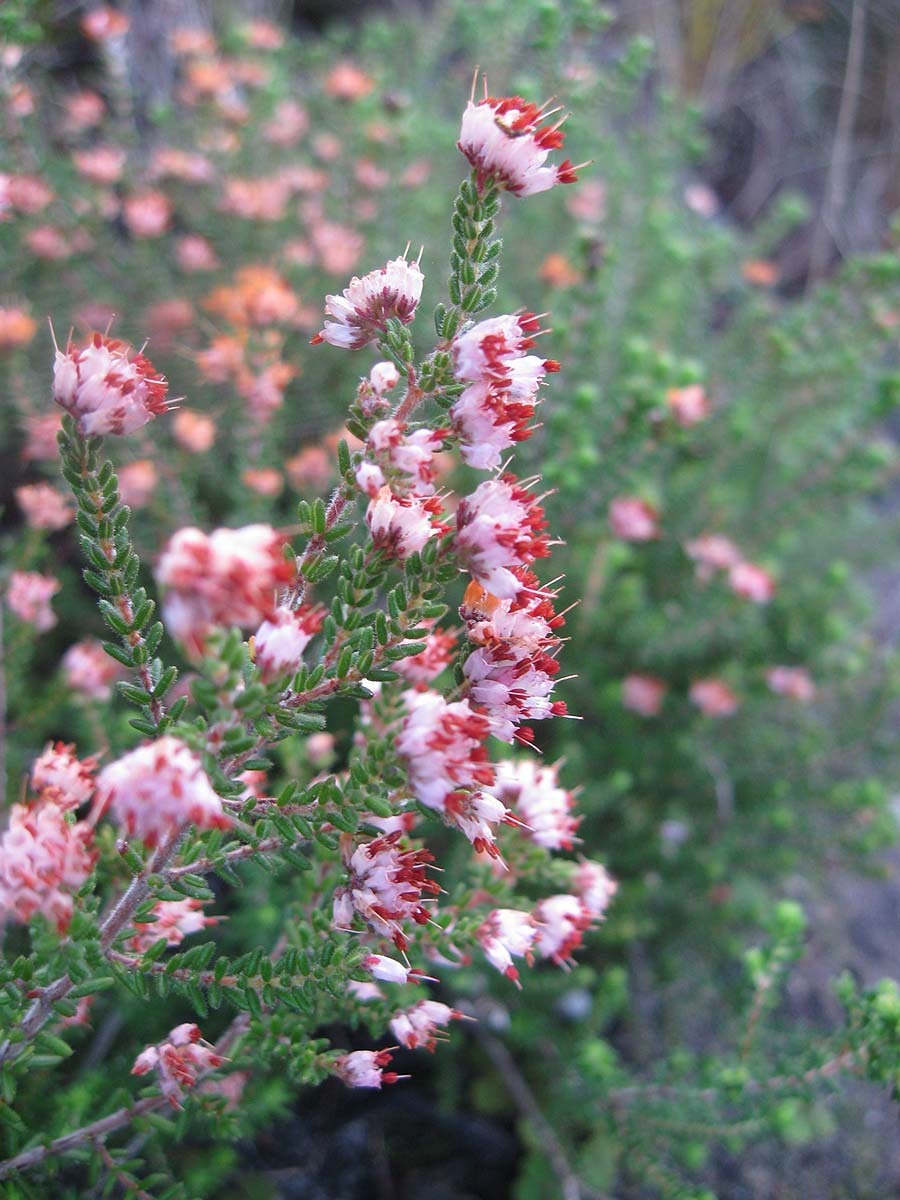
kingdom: Plantae
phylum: Tracheophyta
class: Magnoliopsida
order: Ericales
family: Ericaceae
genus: Erica
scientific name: Erica ericoides
